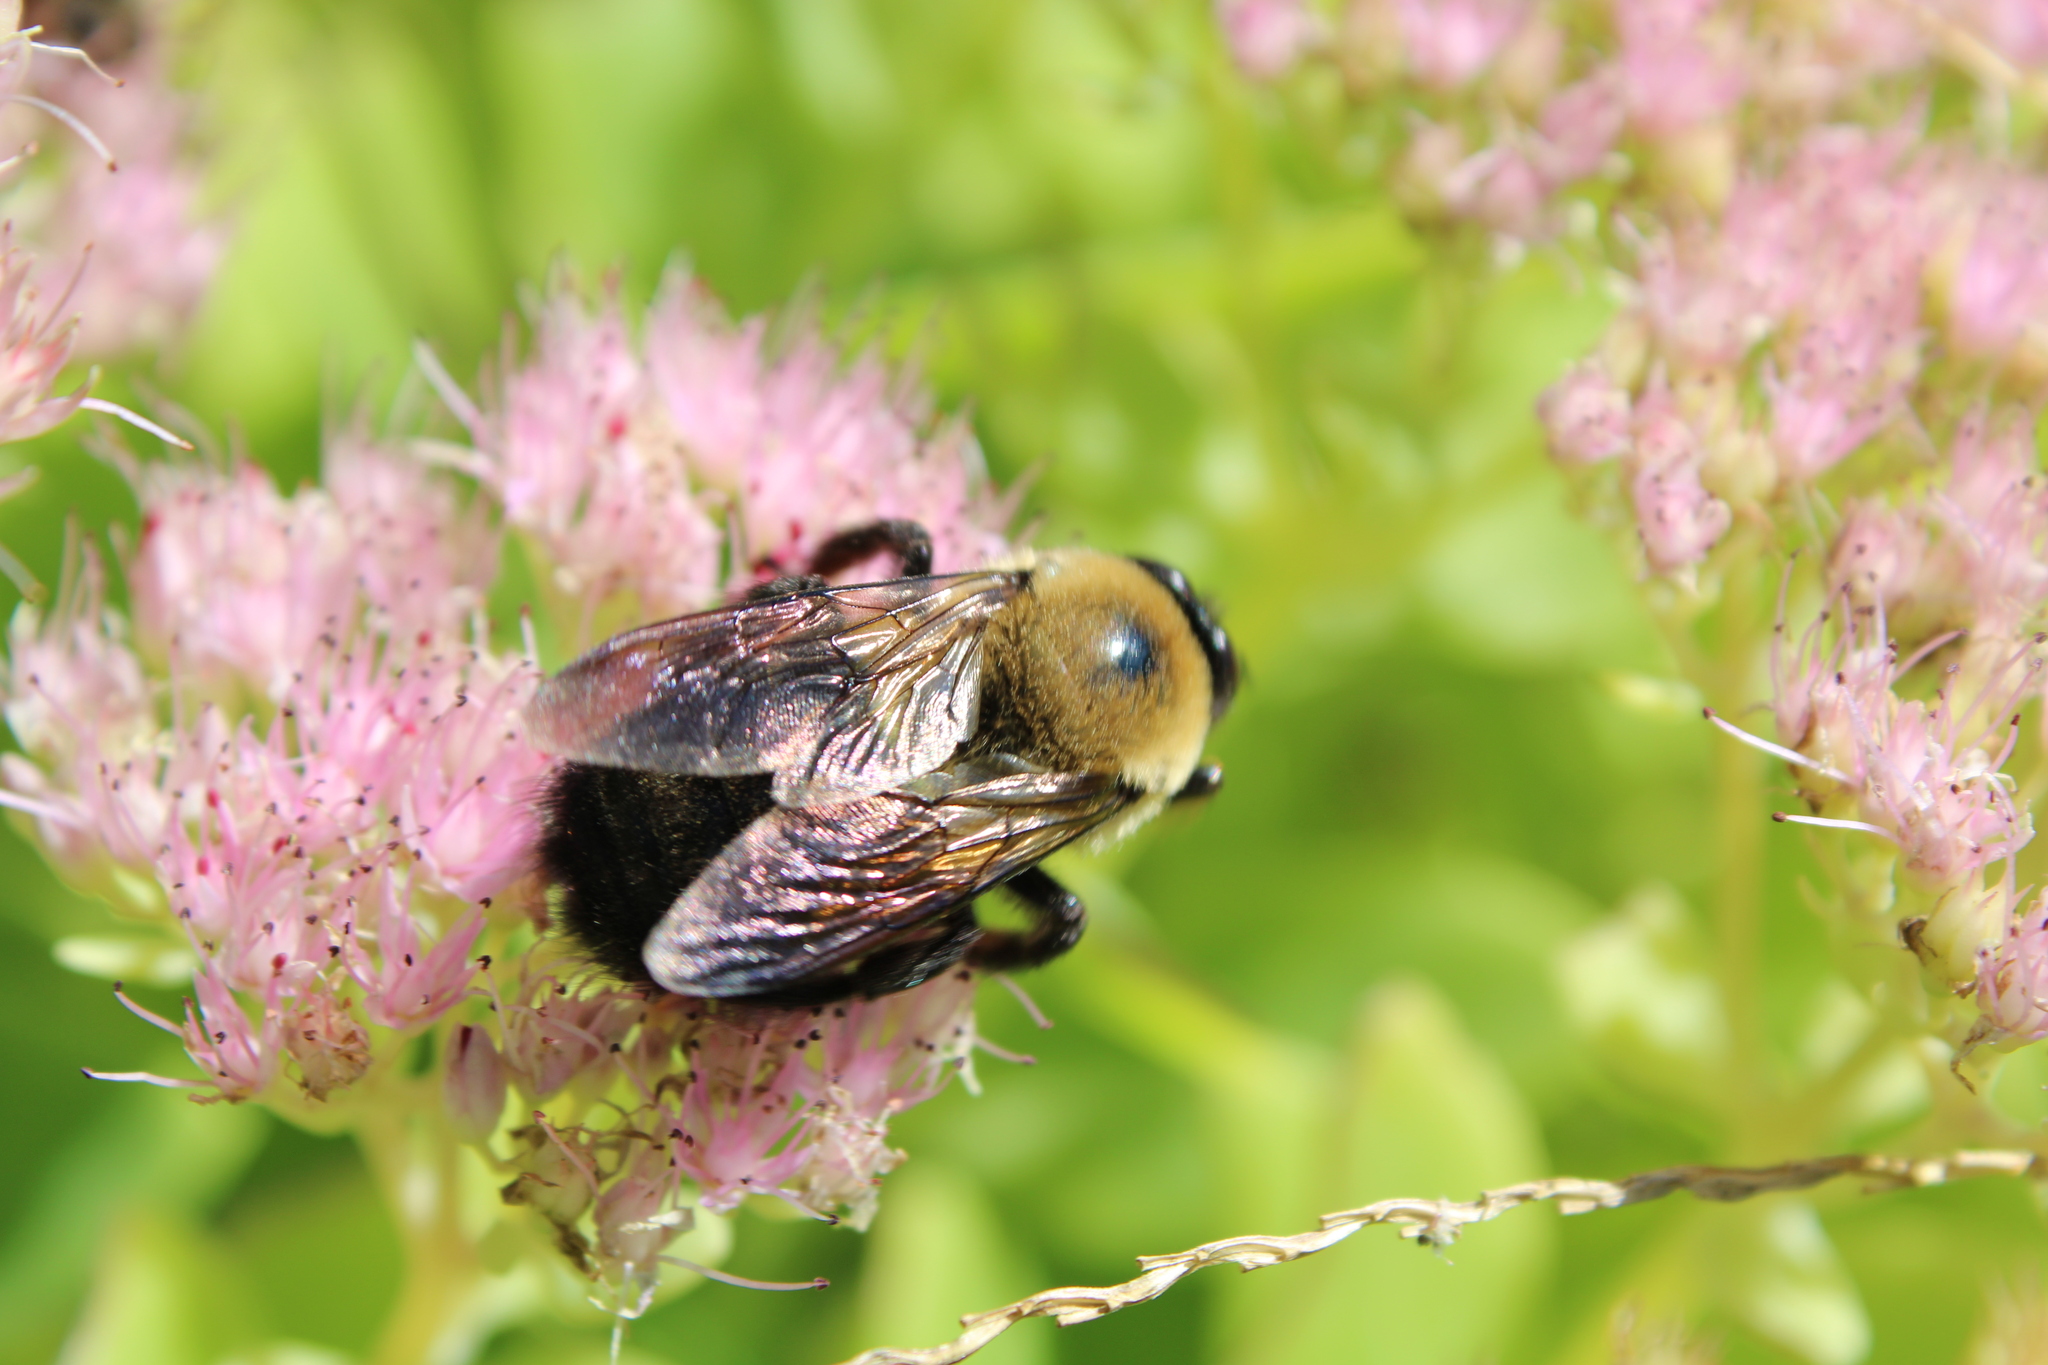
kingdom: Animalia
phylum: Arthropoda
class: Insecta
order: Hymenoptera
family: Apidae
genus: Xylocopa
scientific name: Xylocopa virginica
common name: Carpenter bee
